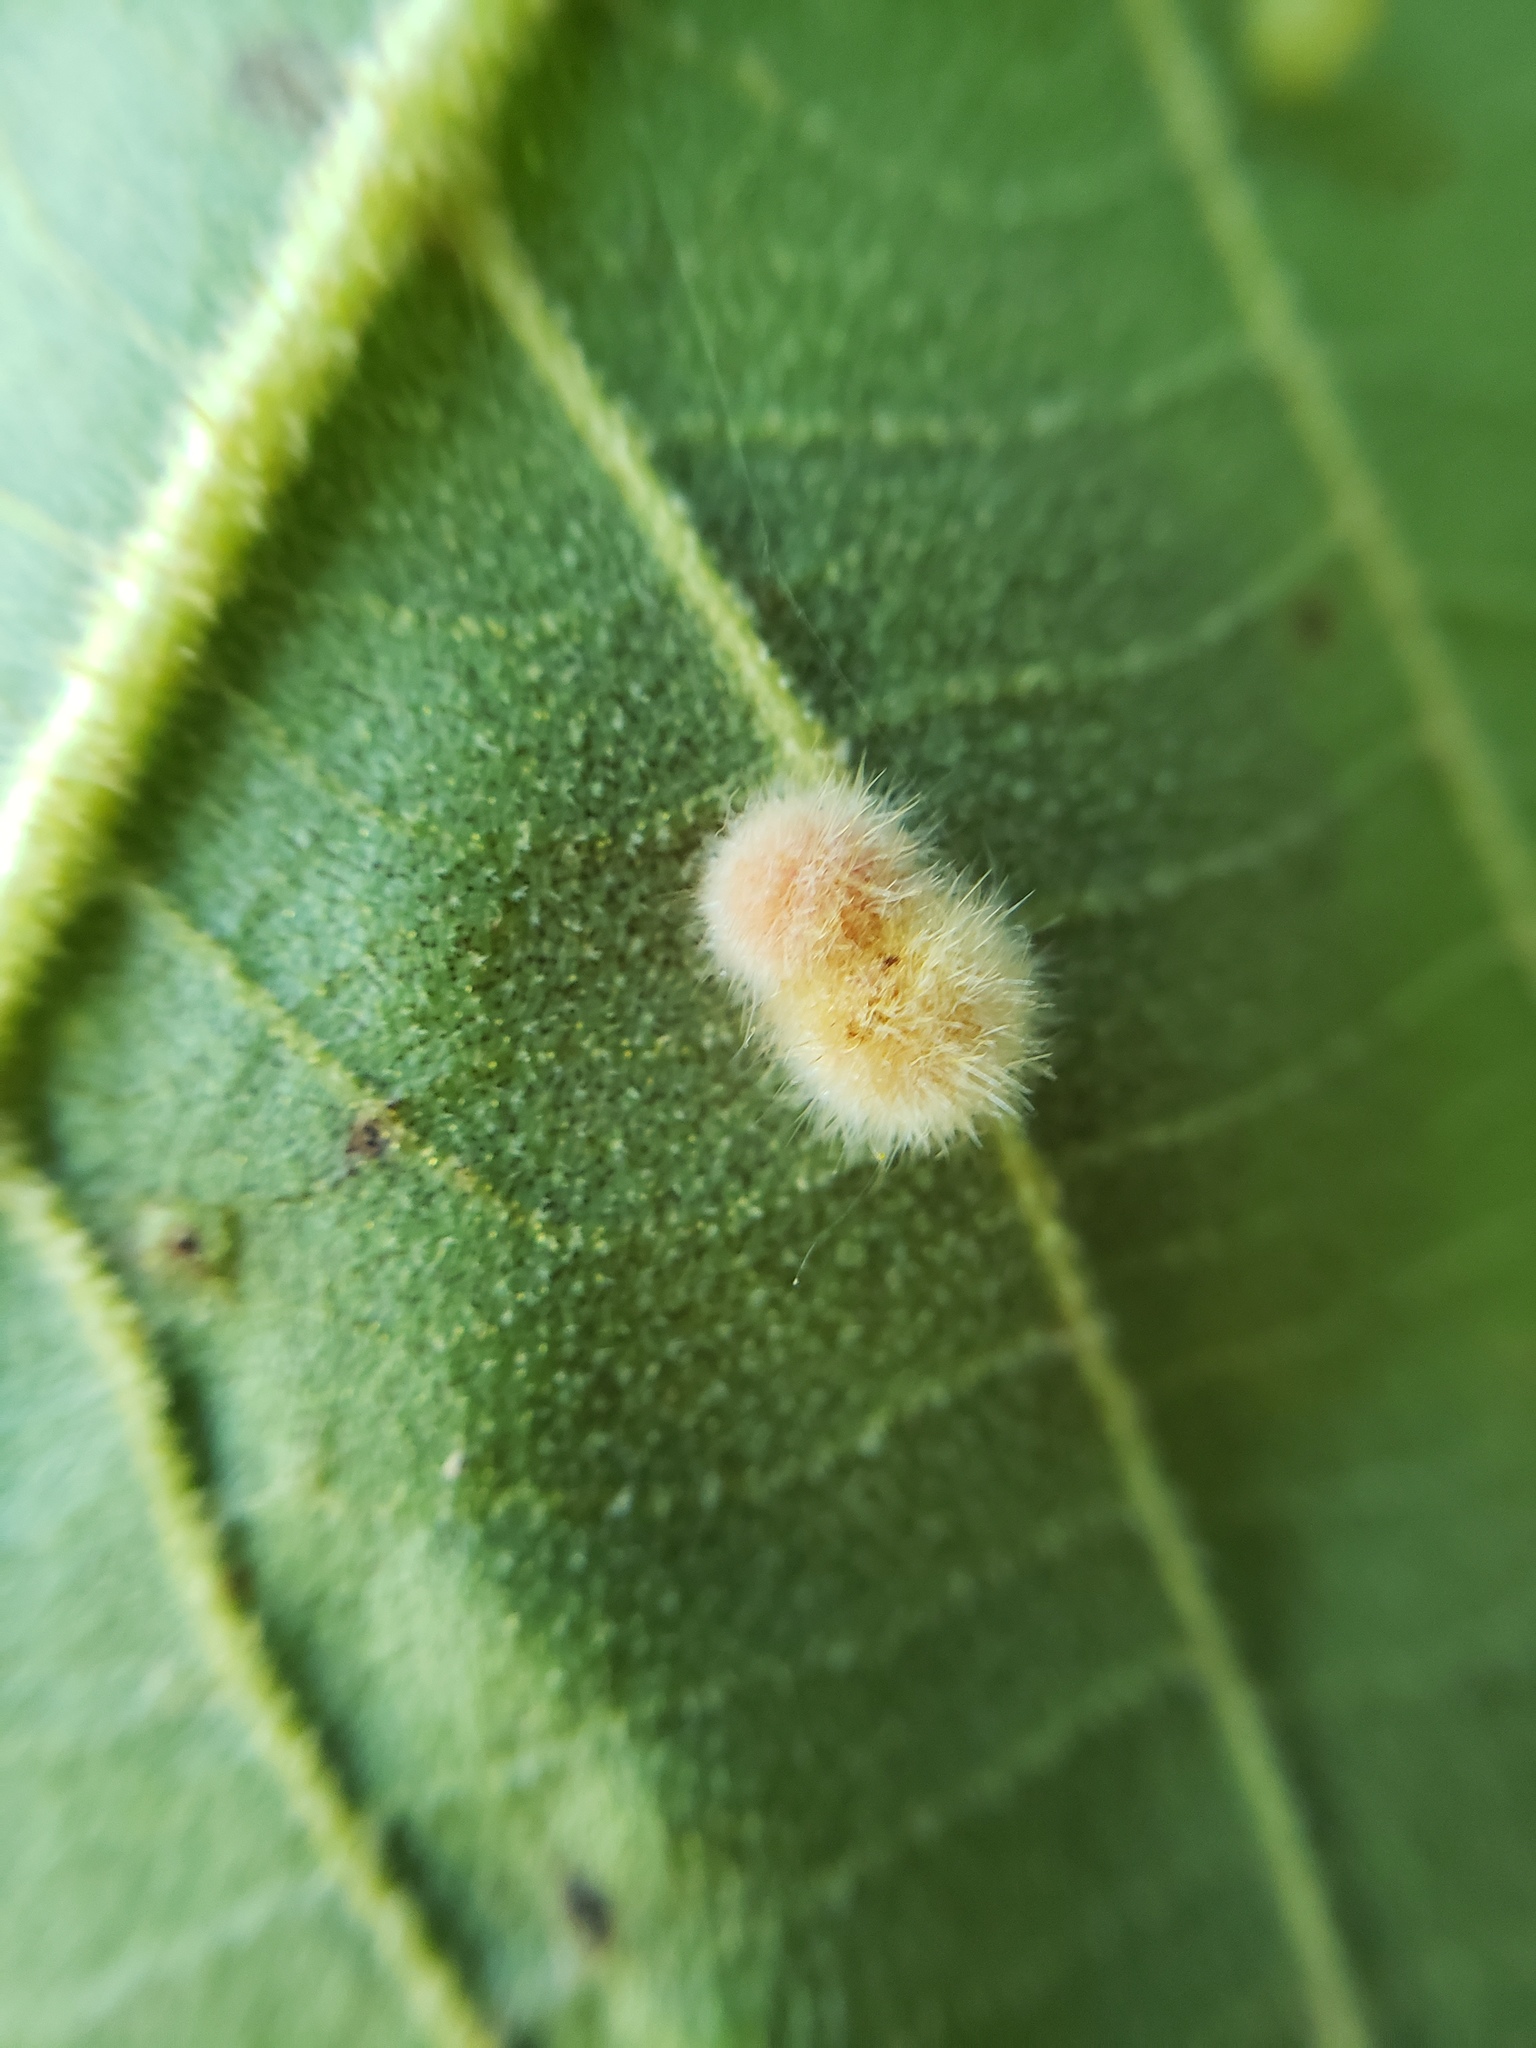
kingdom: Animalia
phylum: Arthropoda
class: Insecta
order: Diptera
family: Cecidomyiidae
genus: Caryomyia
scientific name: Caryomyia spherica
